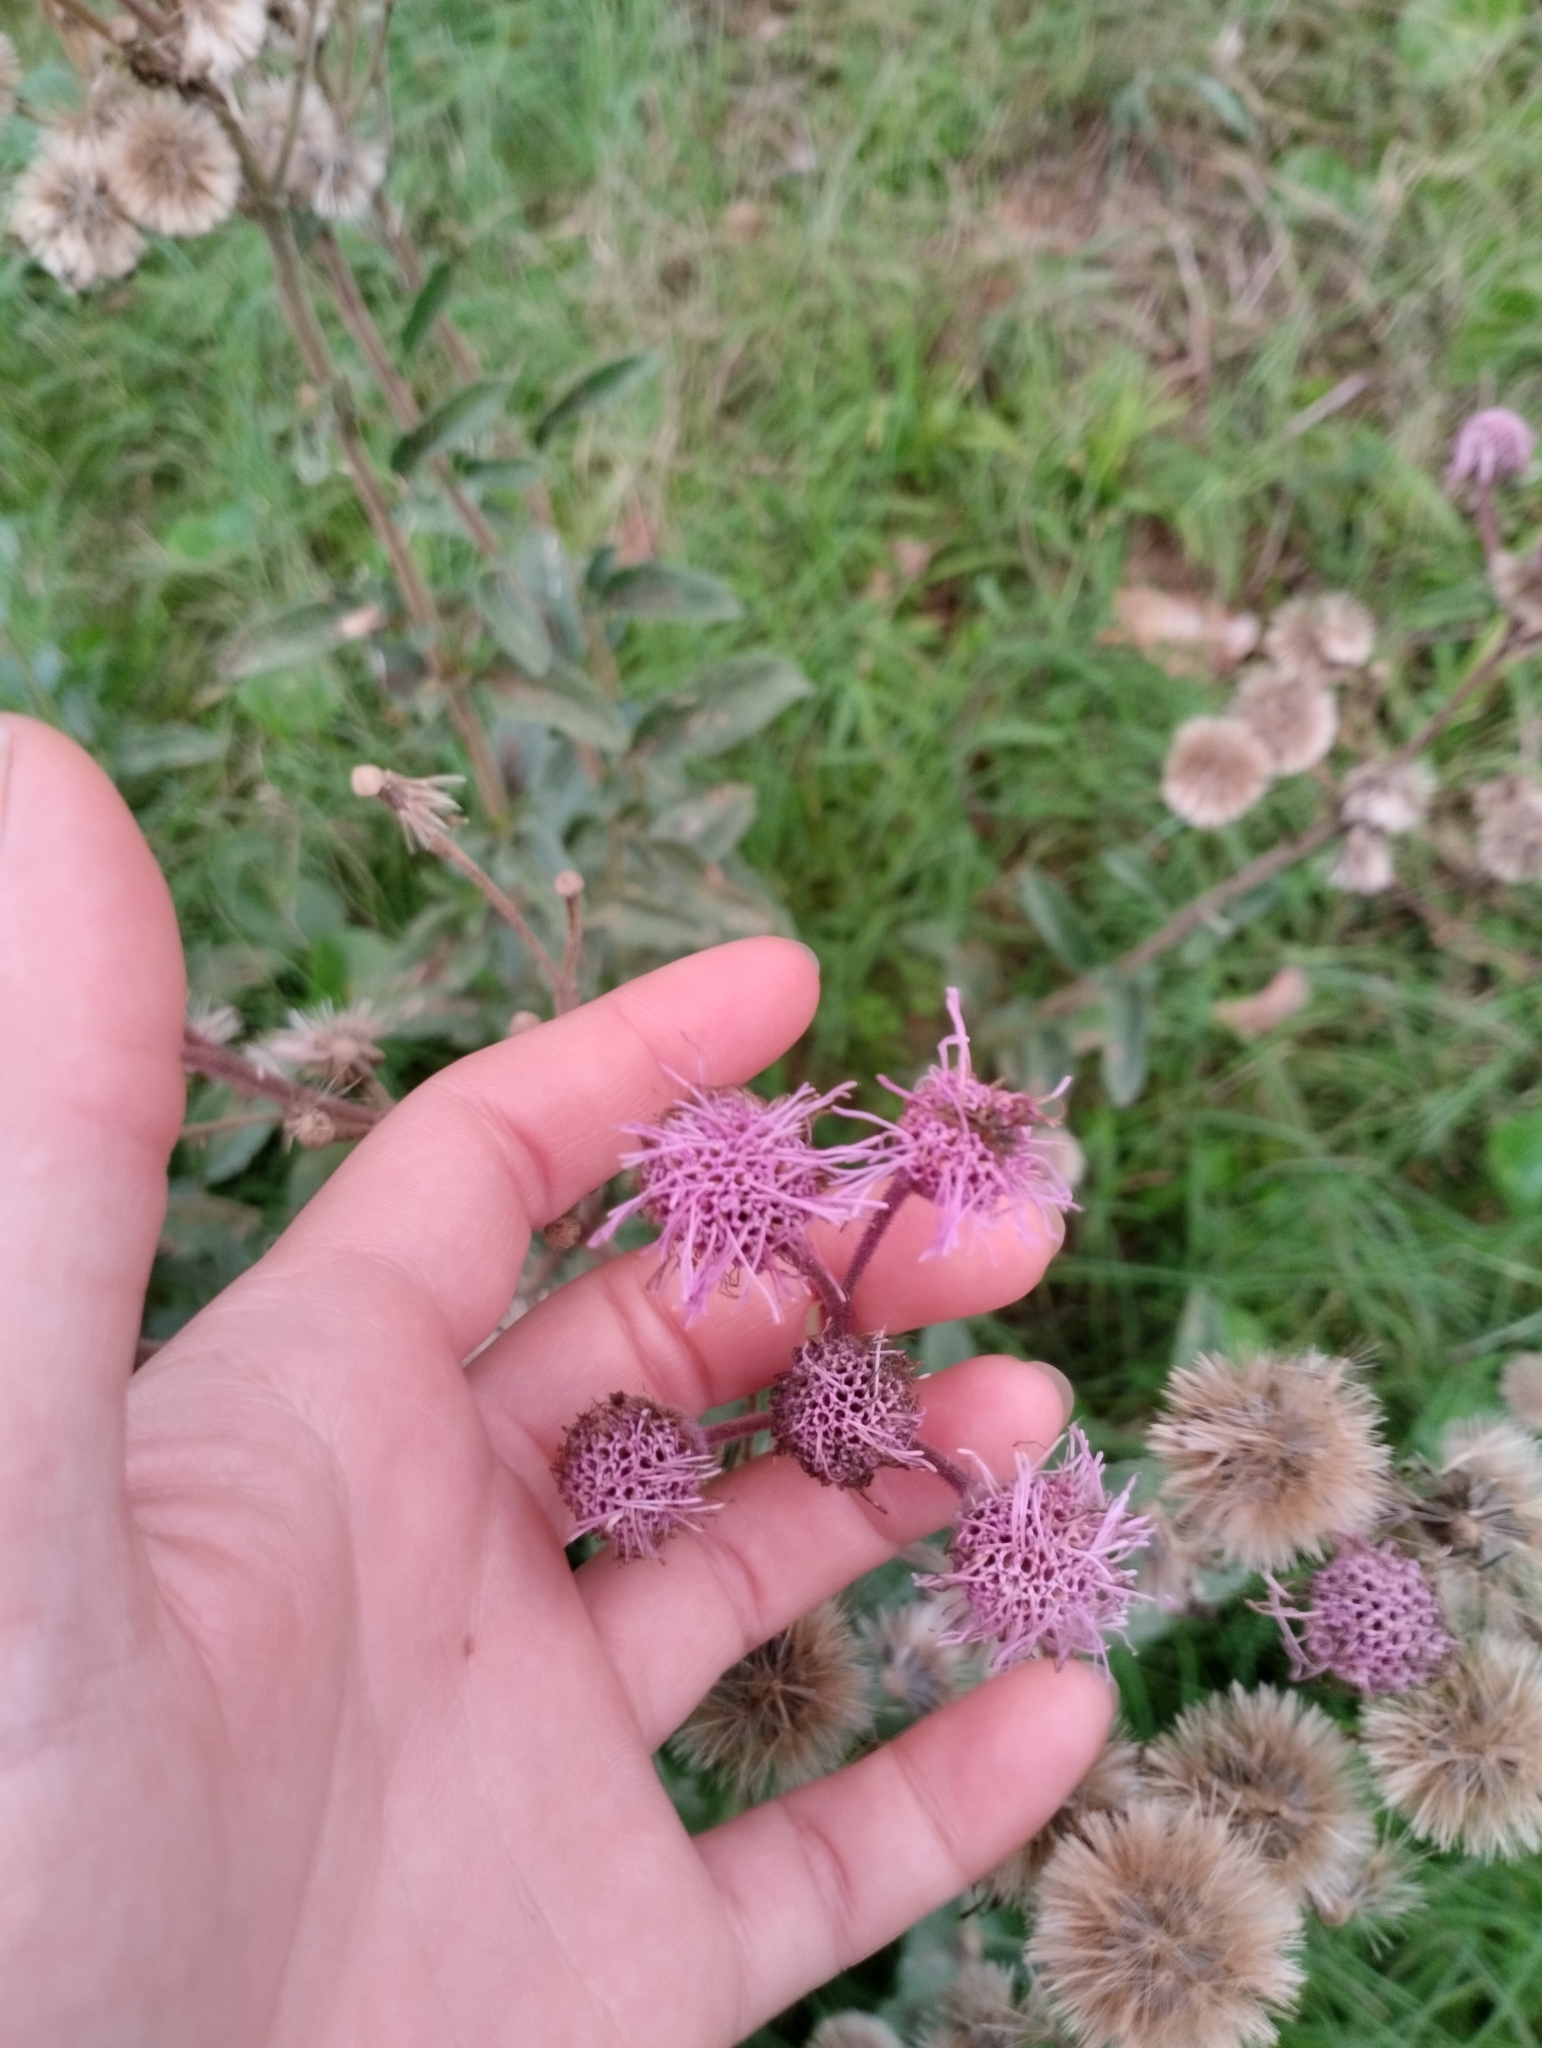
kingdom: Plantae
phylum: Tracheophyta
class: Magnoliopsida
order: Asterales
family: Asteraceae
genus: Campuloclinium
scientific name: Campuloclinium macrocephalum
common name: Pompomweed
